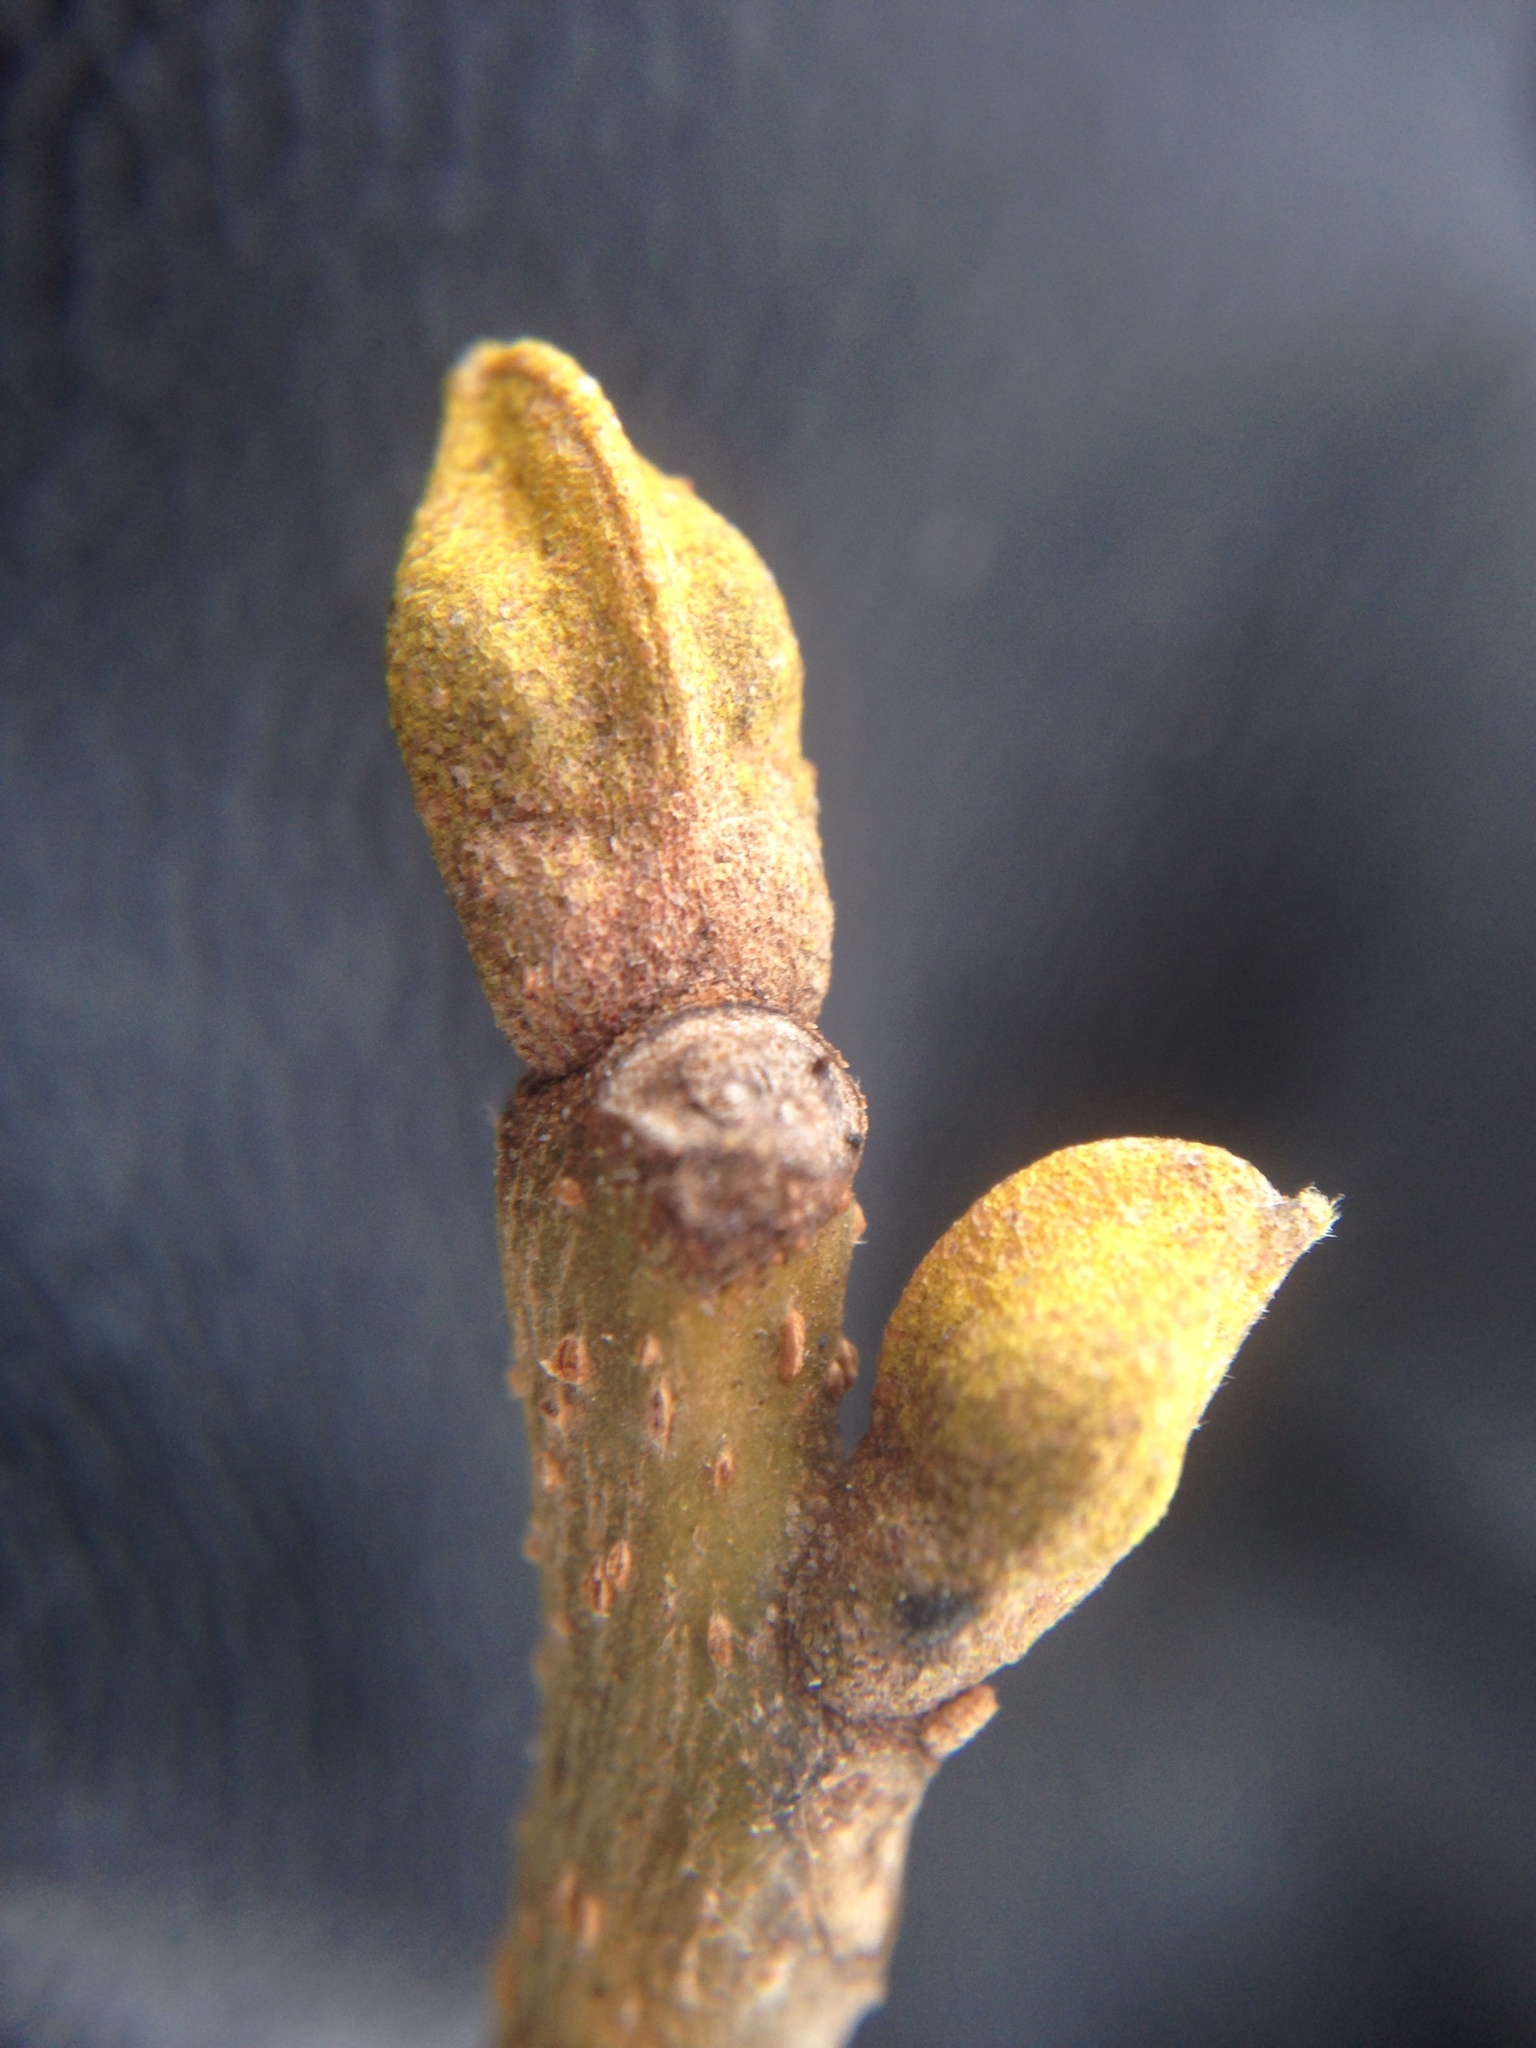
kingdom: Plantae
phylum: Tracheophyta
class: Magnoliopsida
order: Fagales
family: Juglandaceae
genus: Carya
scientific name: Carya cordiformis
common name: Bitternut hickory
